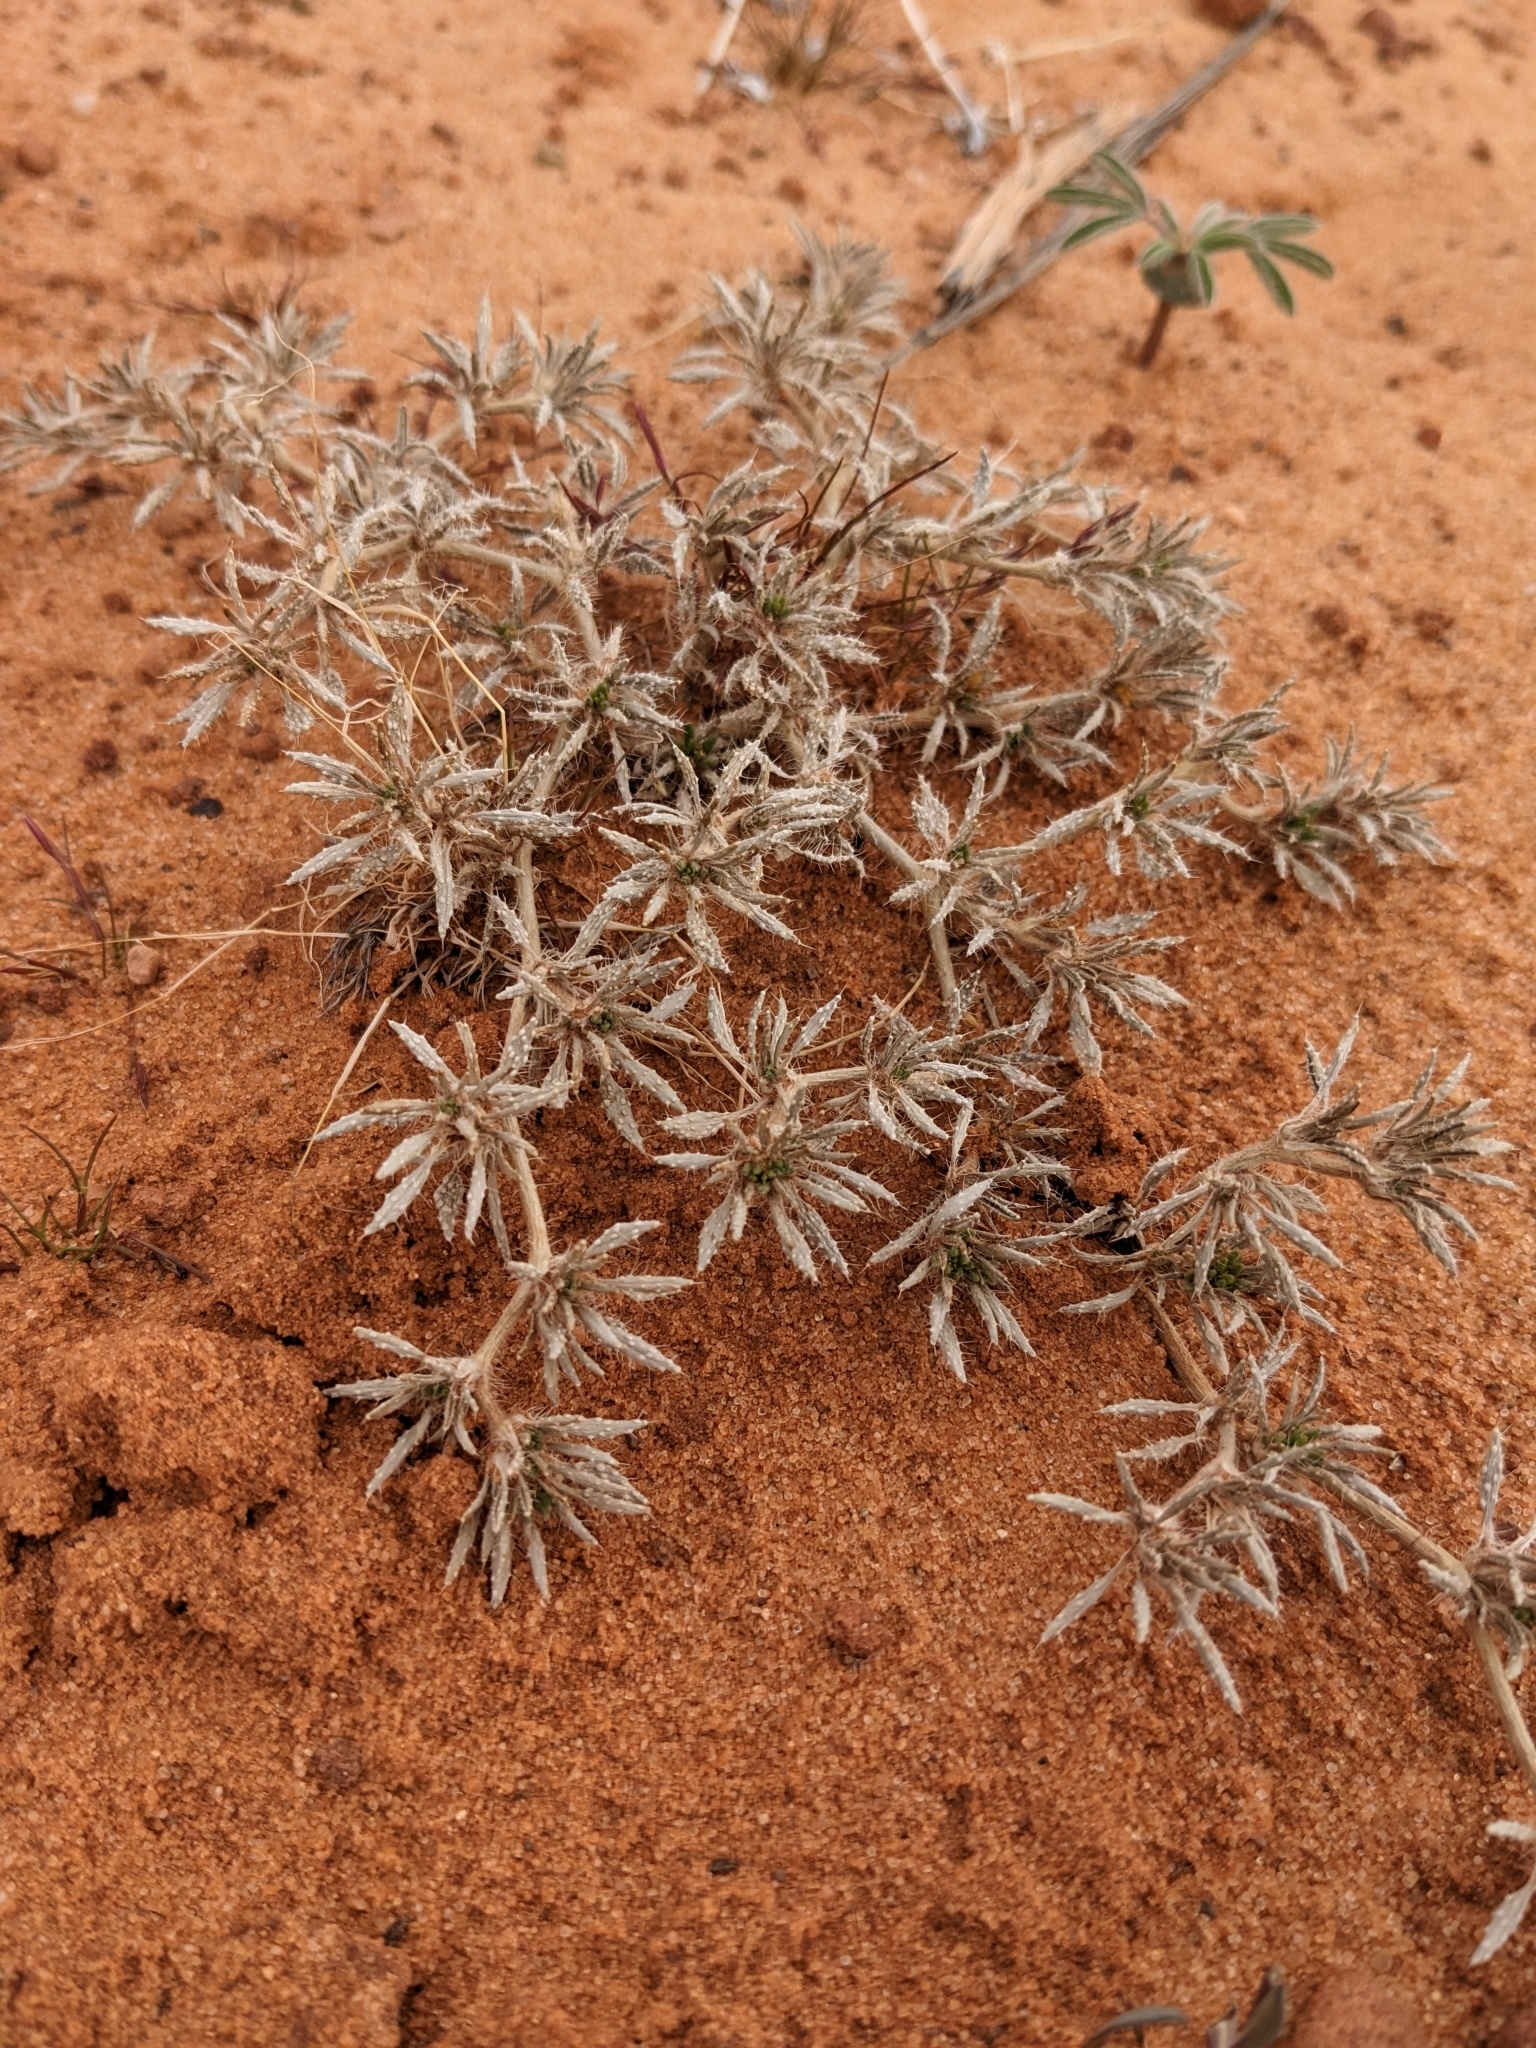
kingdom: Plantae
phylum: Tracheophyta
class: Magnoliopsida
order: Boraginales
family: Ehretiaceae
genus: Tiquilia
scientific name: Tiquilia latior
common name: Matted tiquilia
